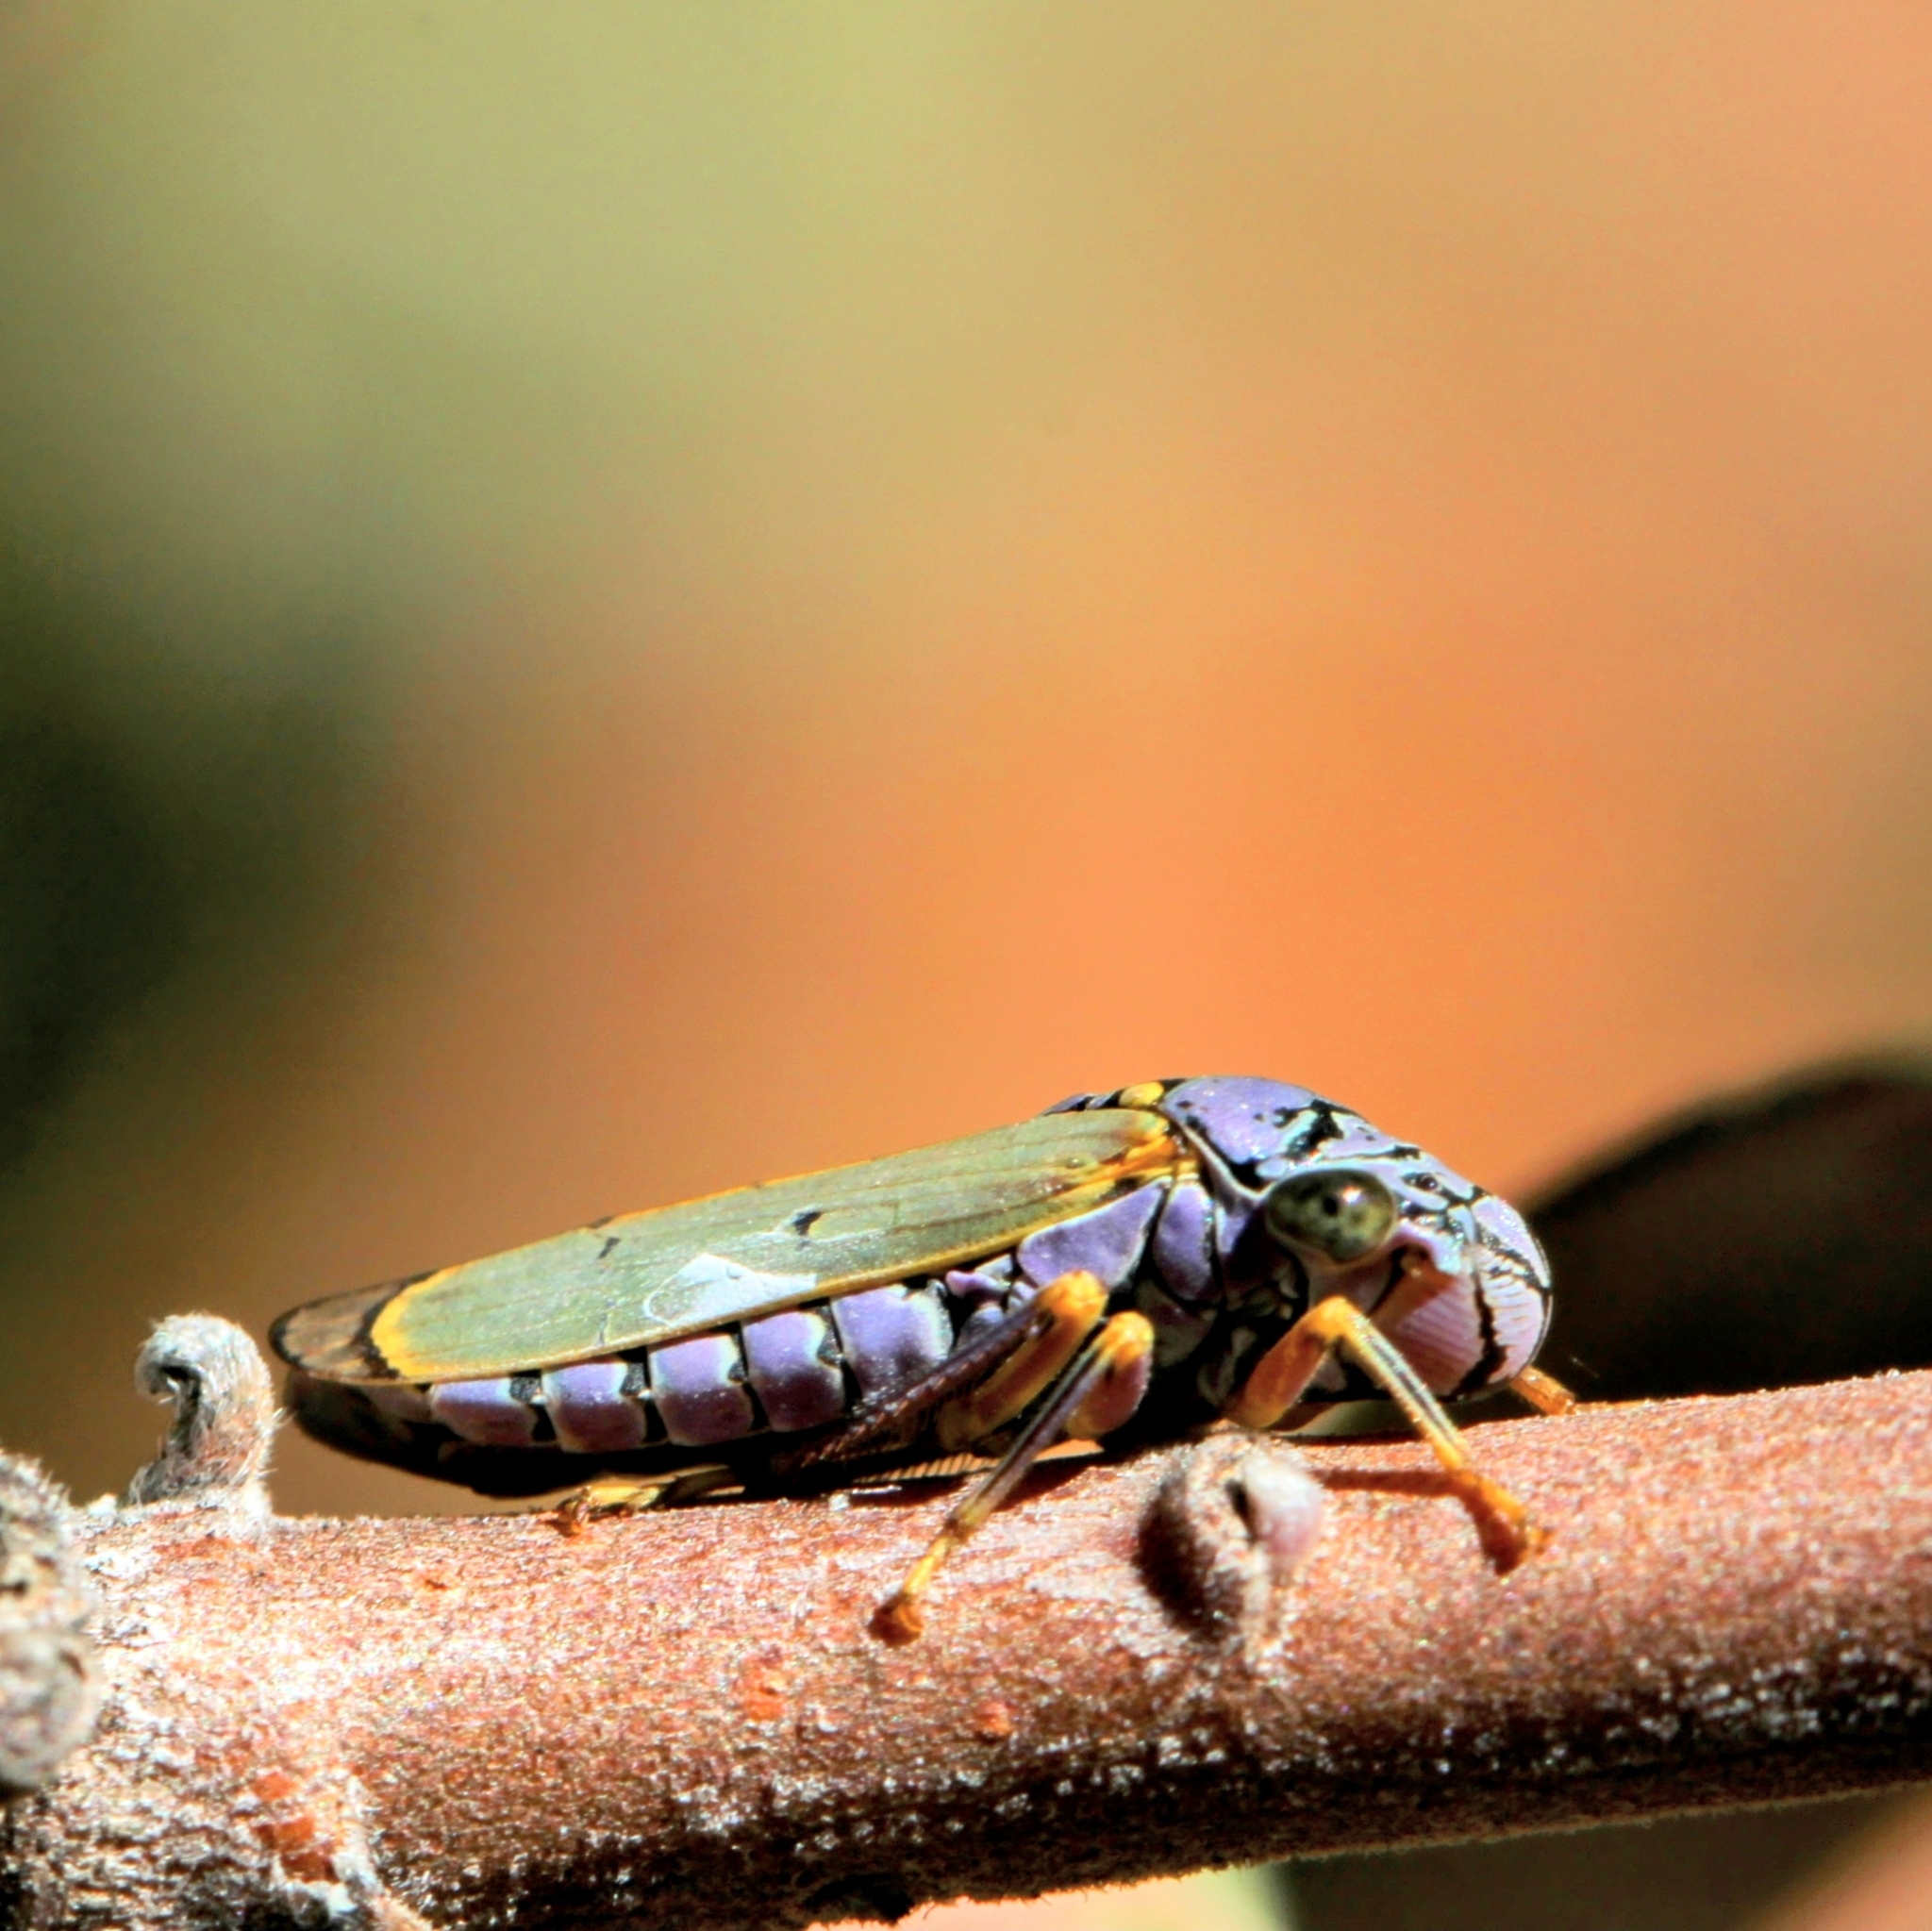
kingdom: Animalia
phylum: Arthropoda
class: Insecta
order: Hemiptera
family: Cicadellidae
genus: Oncometopia
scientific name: Oncometopia alpha
